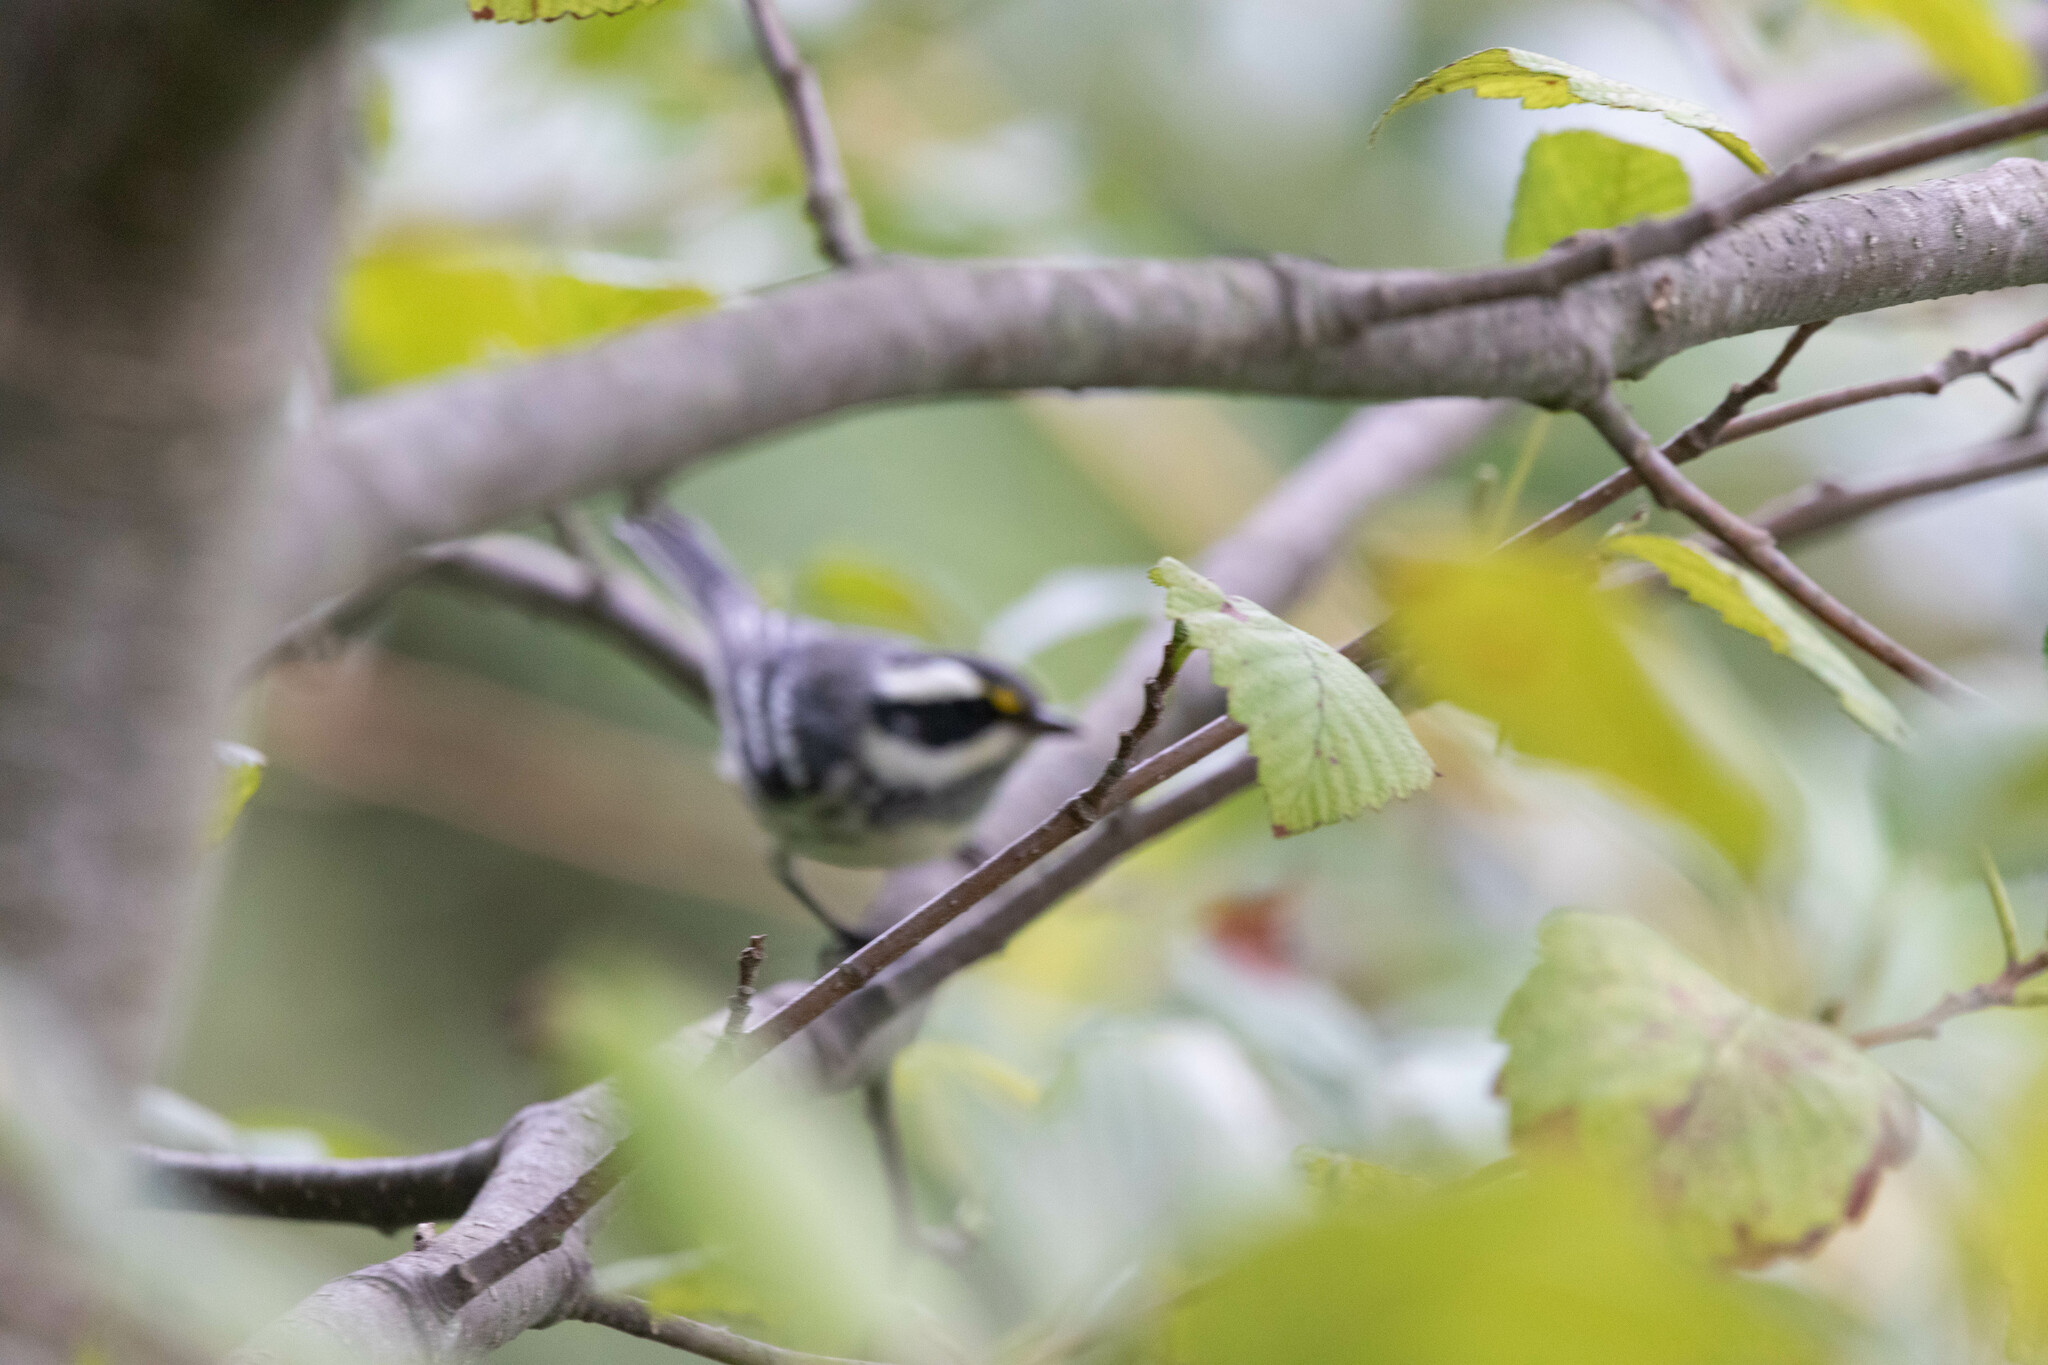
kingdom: Animalia
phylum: Chordata
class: Aves
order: Passeriformes
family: Parulidae
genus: Setophaga
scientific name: Setophaga nigrescens
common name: Black-throated gray warbler
